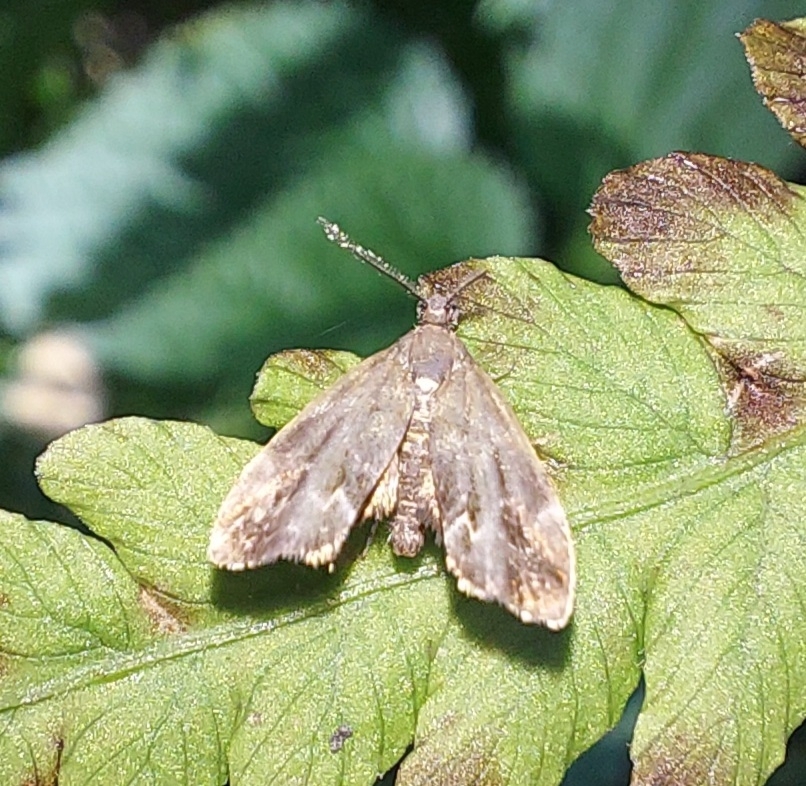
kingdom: Animalia
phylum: Arthropoda
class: Insecta
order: Lepidoptera
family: Choreutidae
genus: Anthophila
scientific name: Anthophila fabriciana
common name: Nettle-tap
